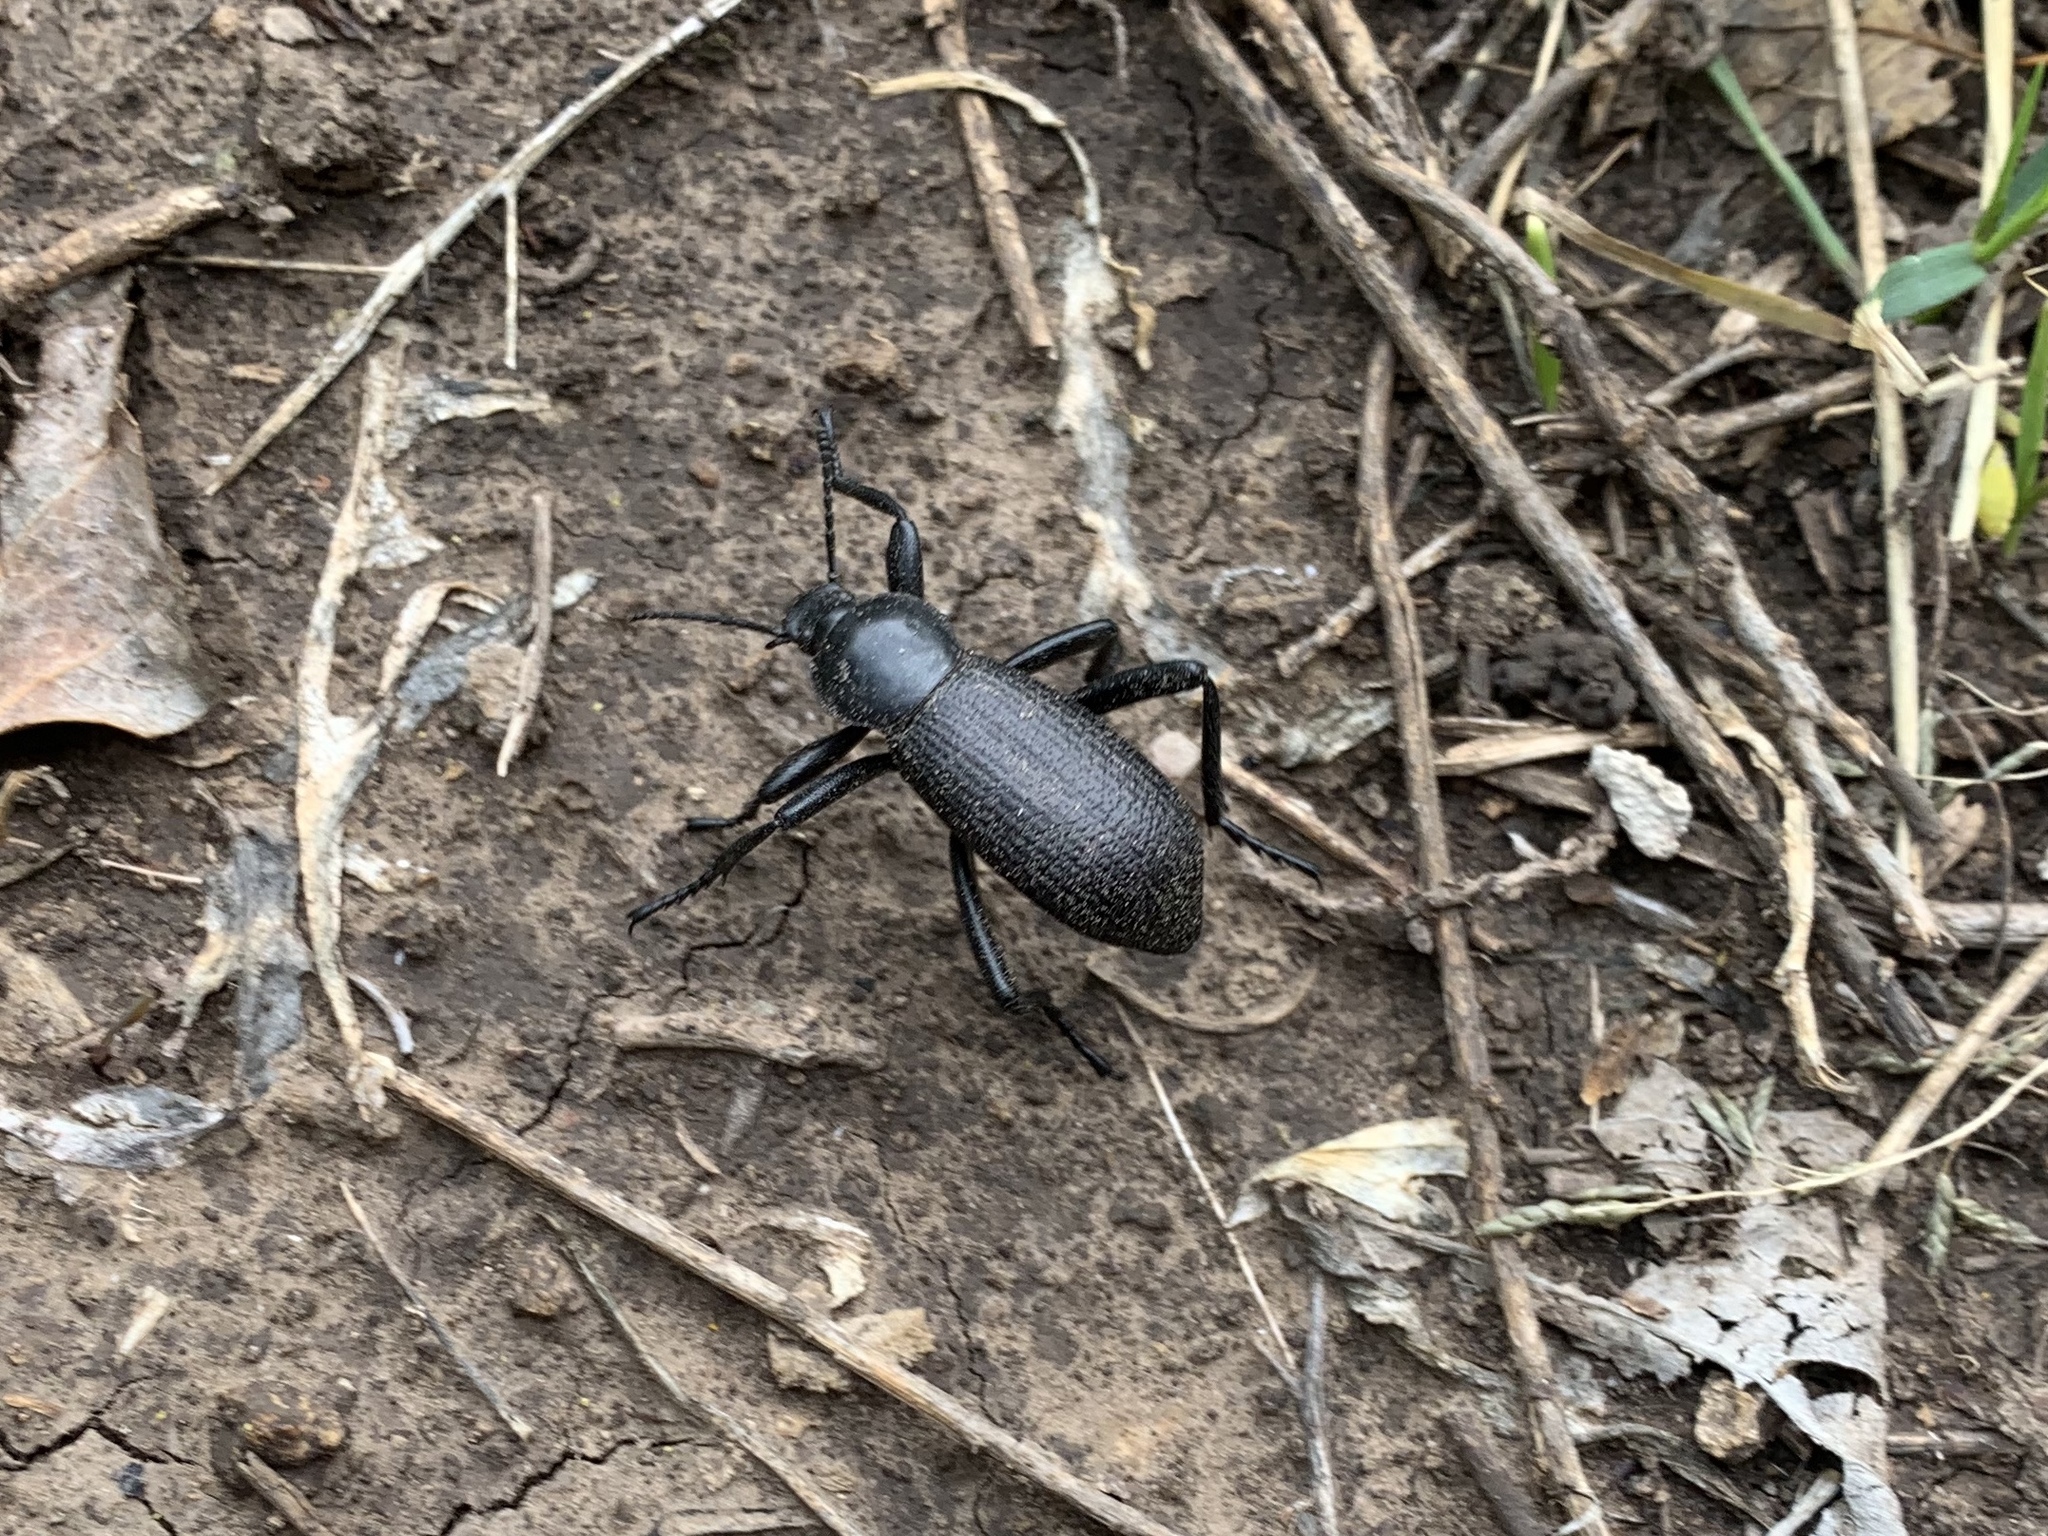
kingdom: Animalia
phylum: Arthropoda
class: Insecta
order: Coleoptera
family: Tenebrionidae
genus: Eleodes
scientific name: Eleodes obscura
